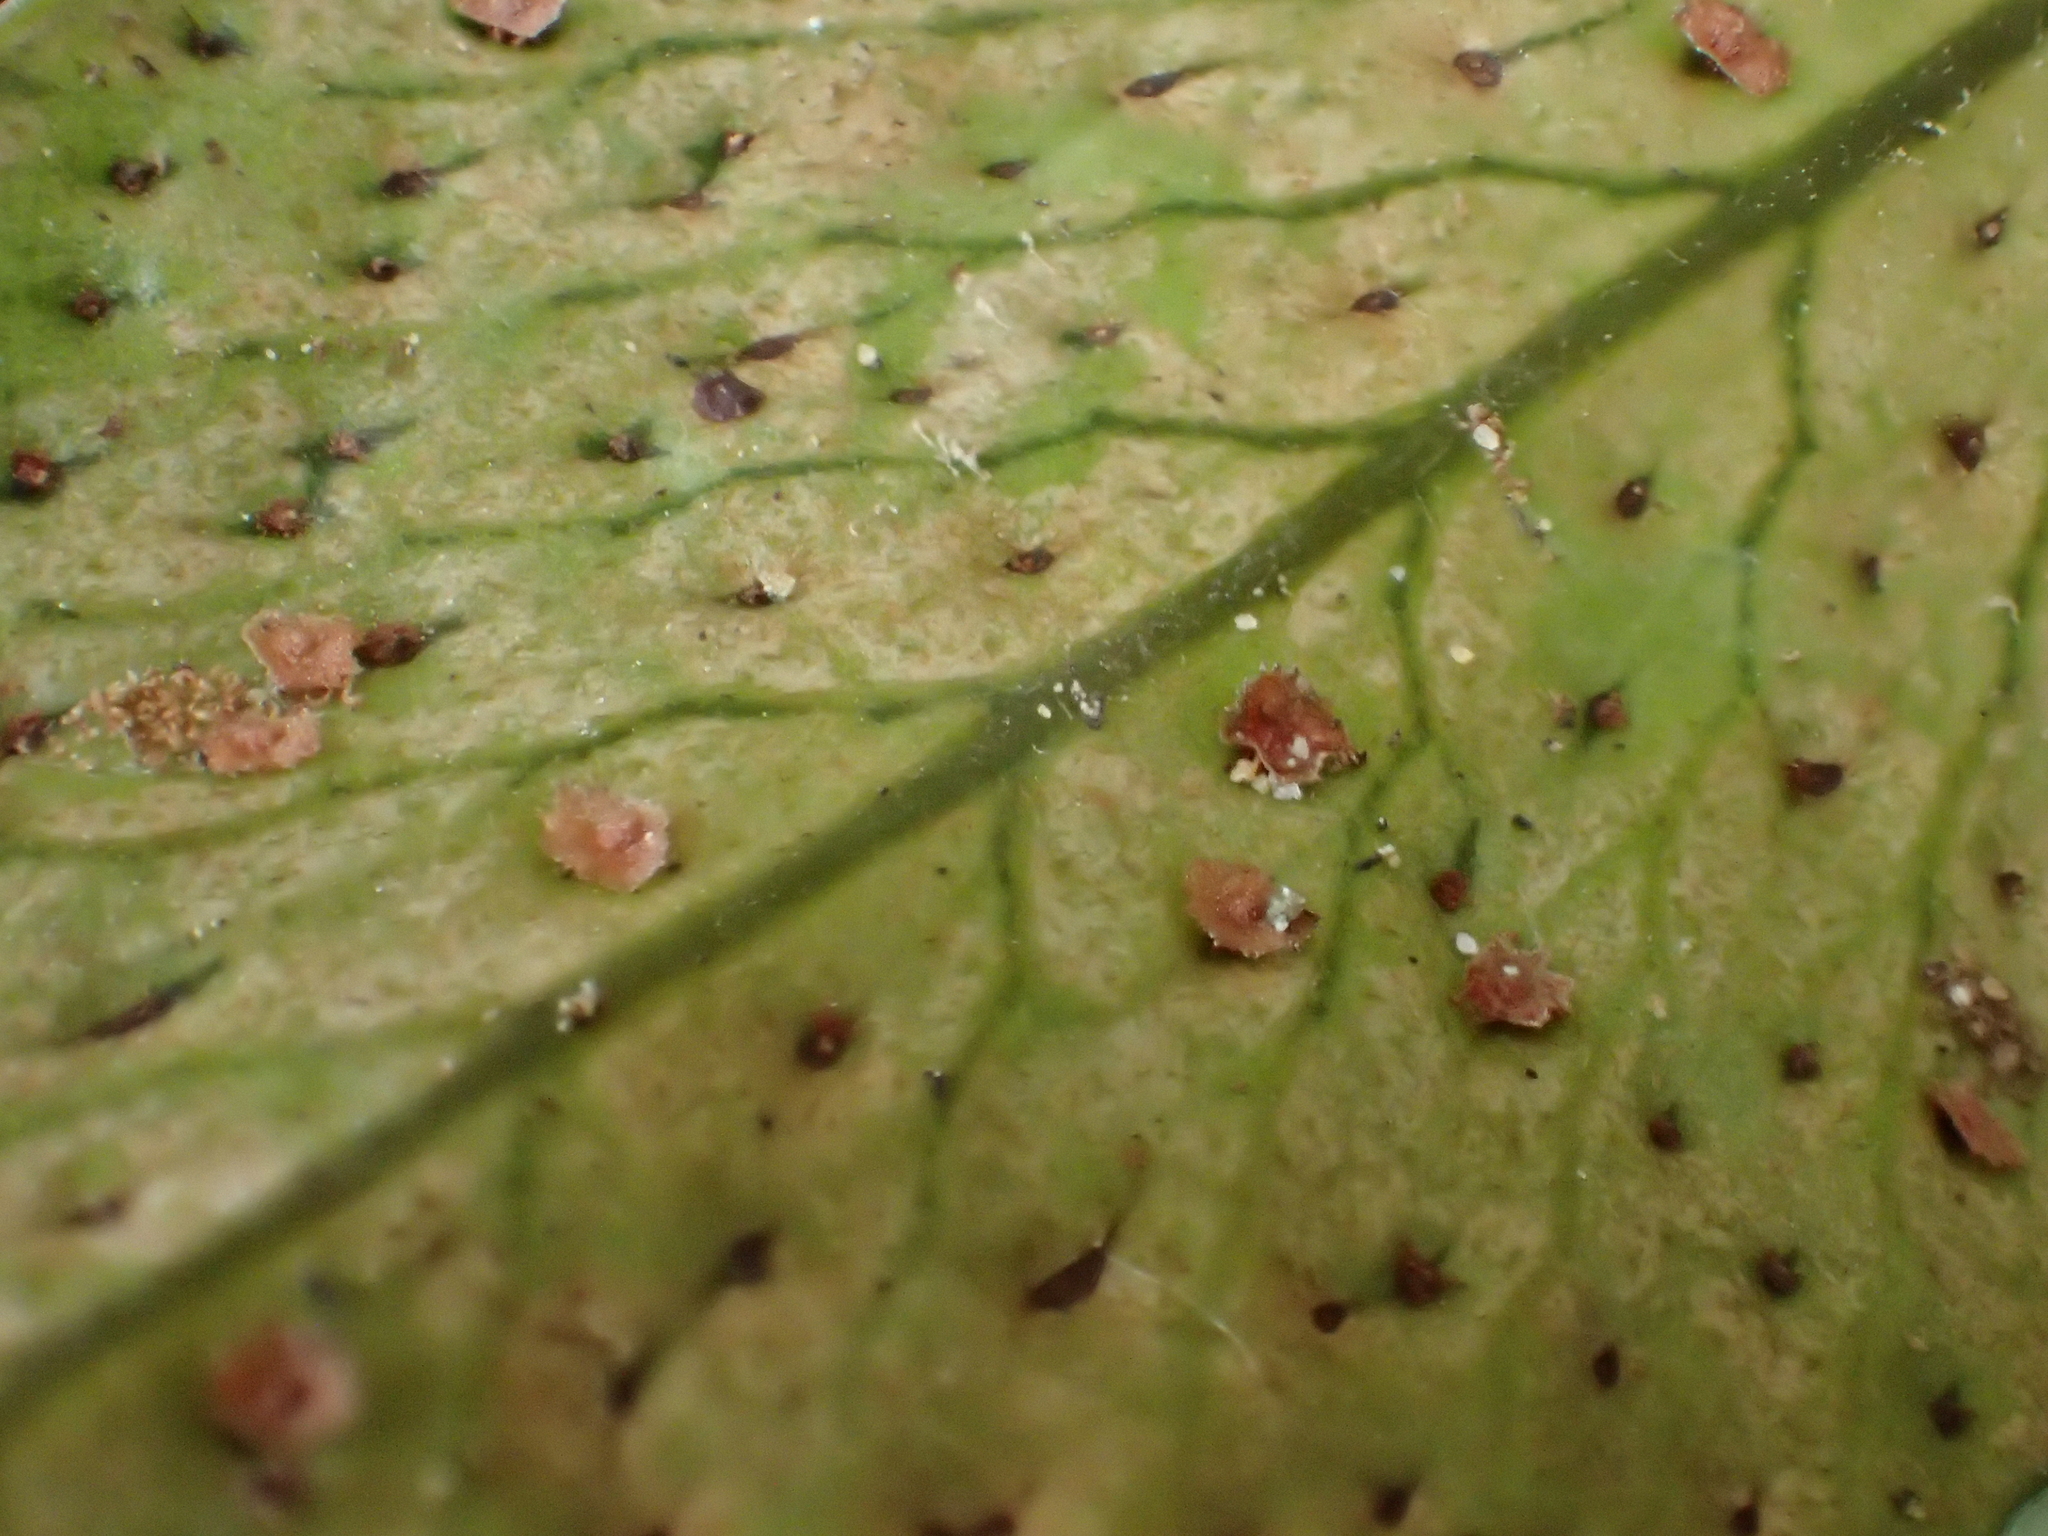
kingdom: Plantae
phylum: Tracheophyta
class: Polypodiopsida
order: Polypodiales
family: Dryopteridaceae
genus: Cyrtomium
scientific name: Cyrtomium falcatum
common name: House holly-fern
